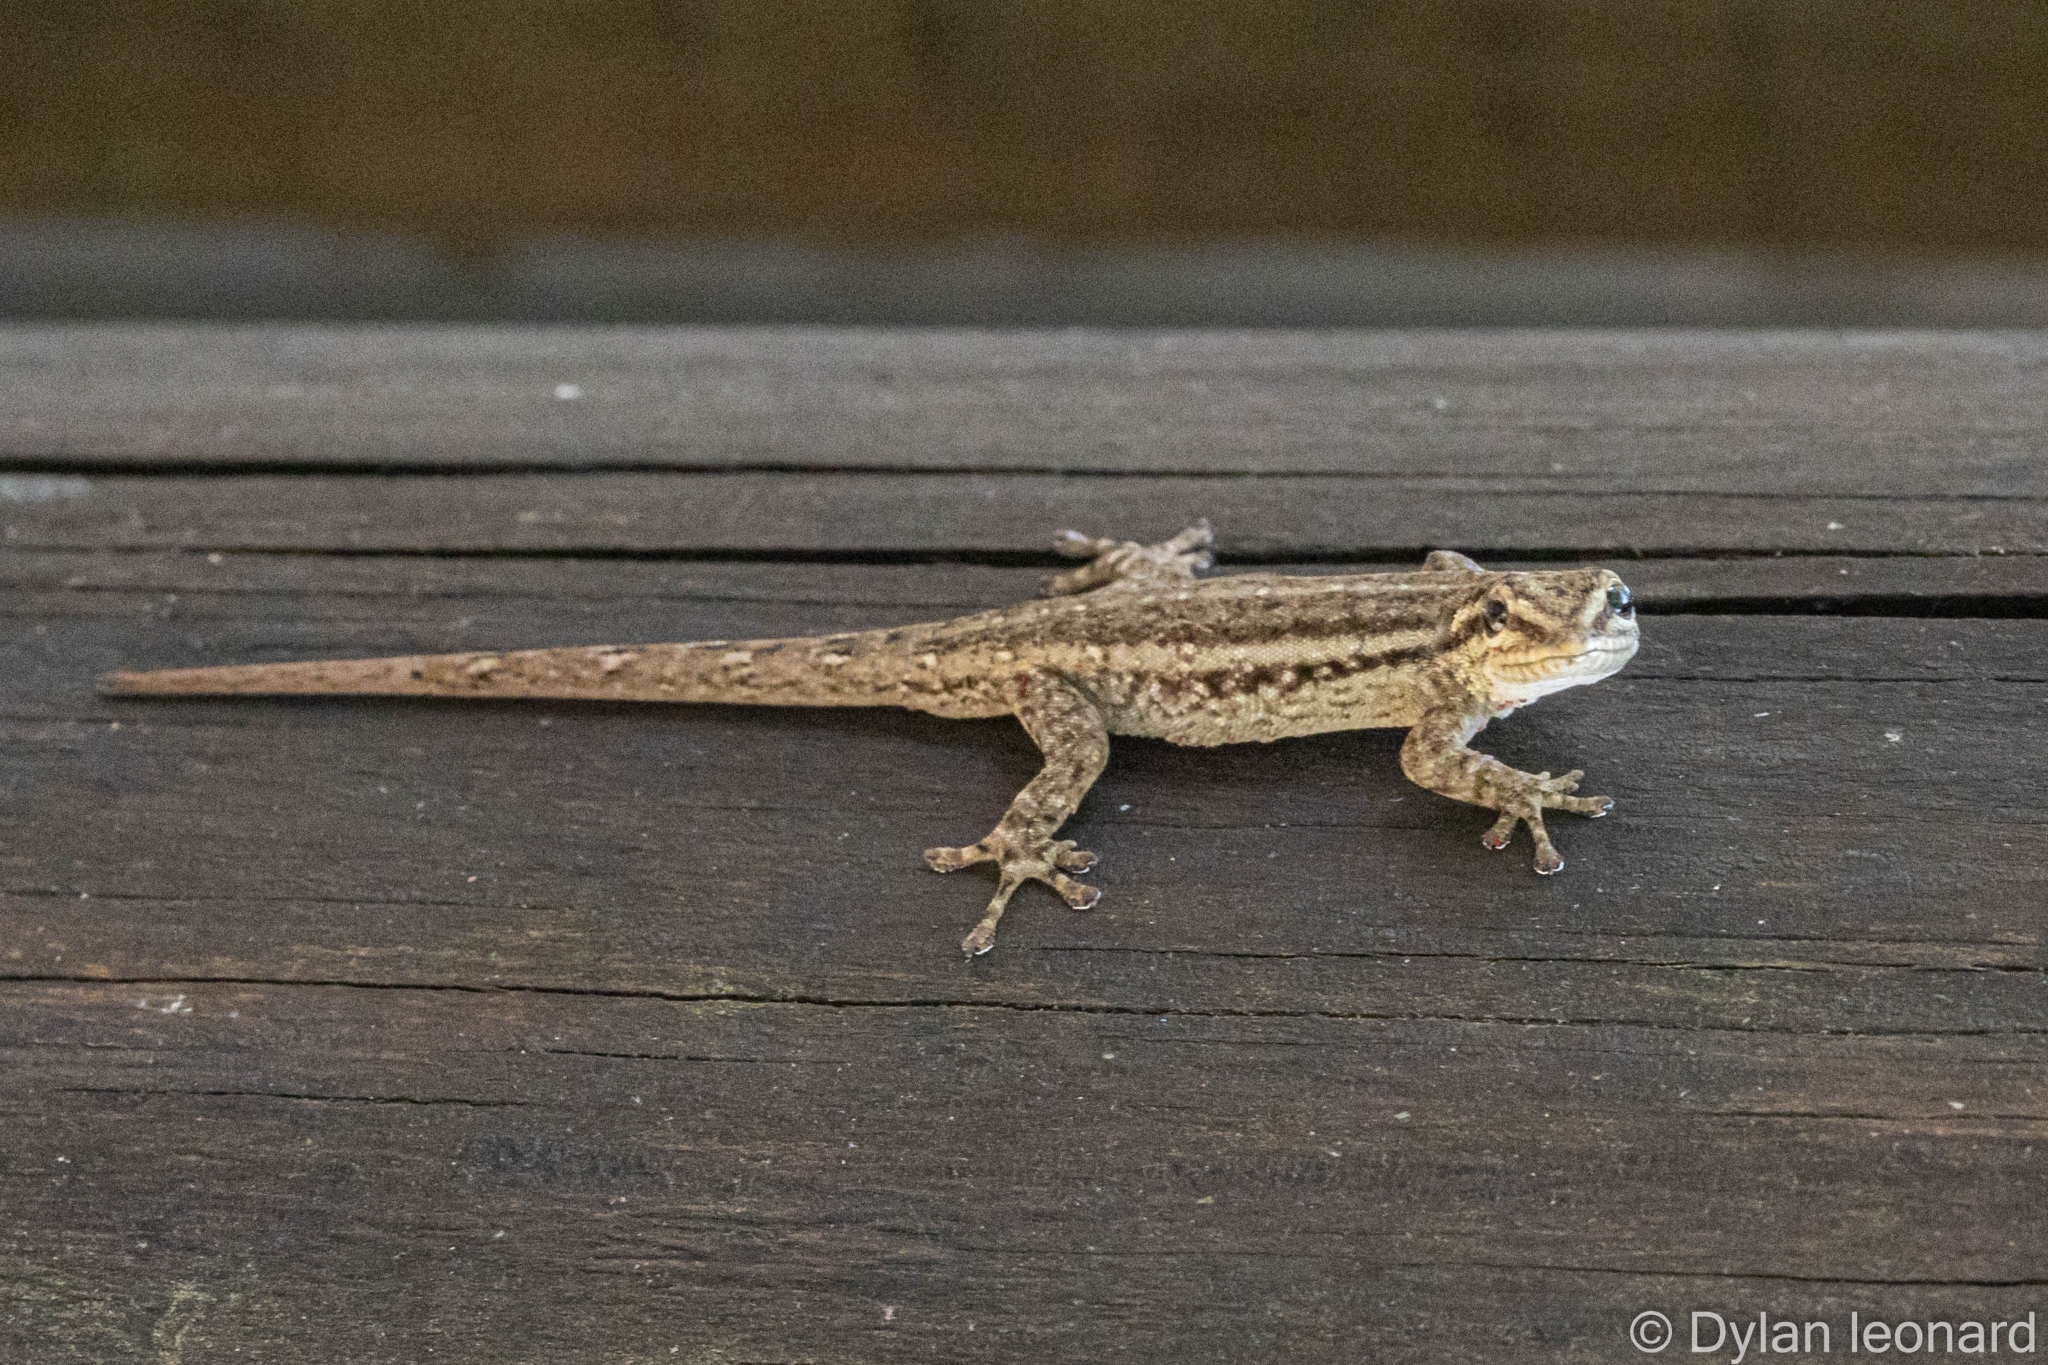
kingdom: Animalia
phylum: Chordata
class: Squamata
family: Gekkonidae
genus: Lygodactylus
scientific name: Lygodactylus capensis
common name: Cape dwarf gecko
